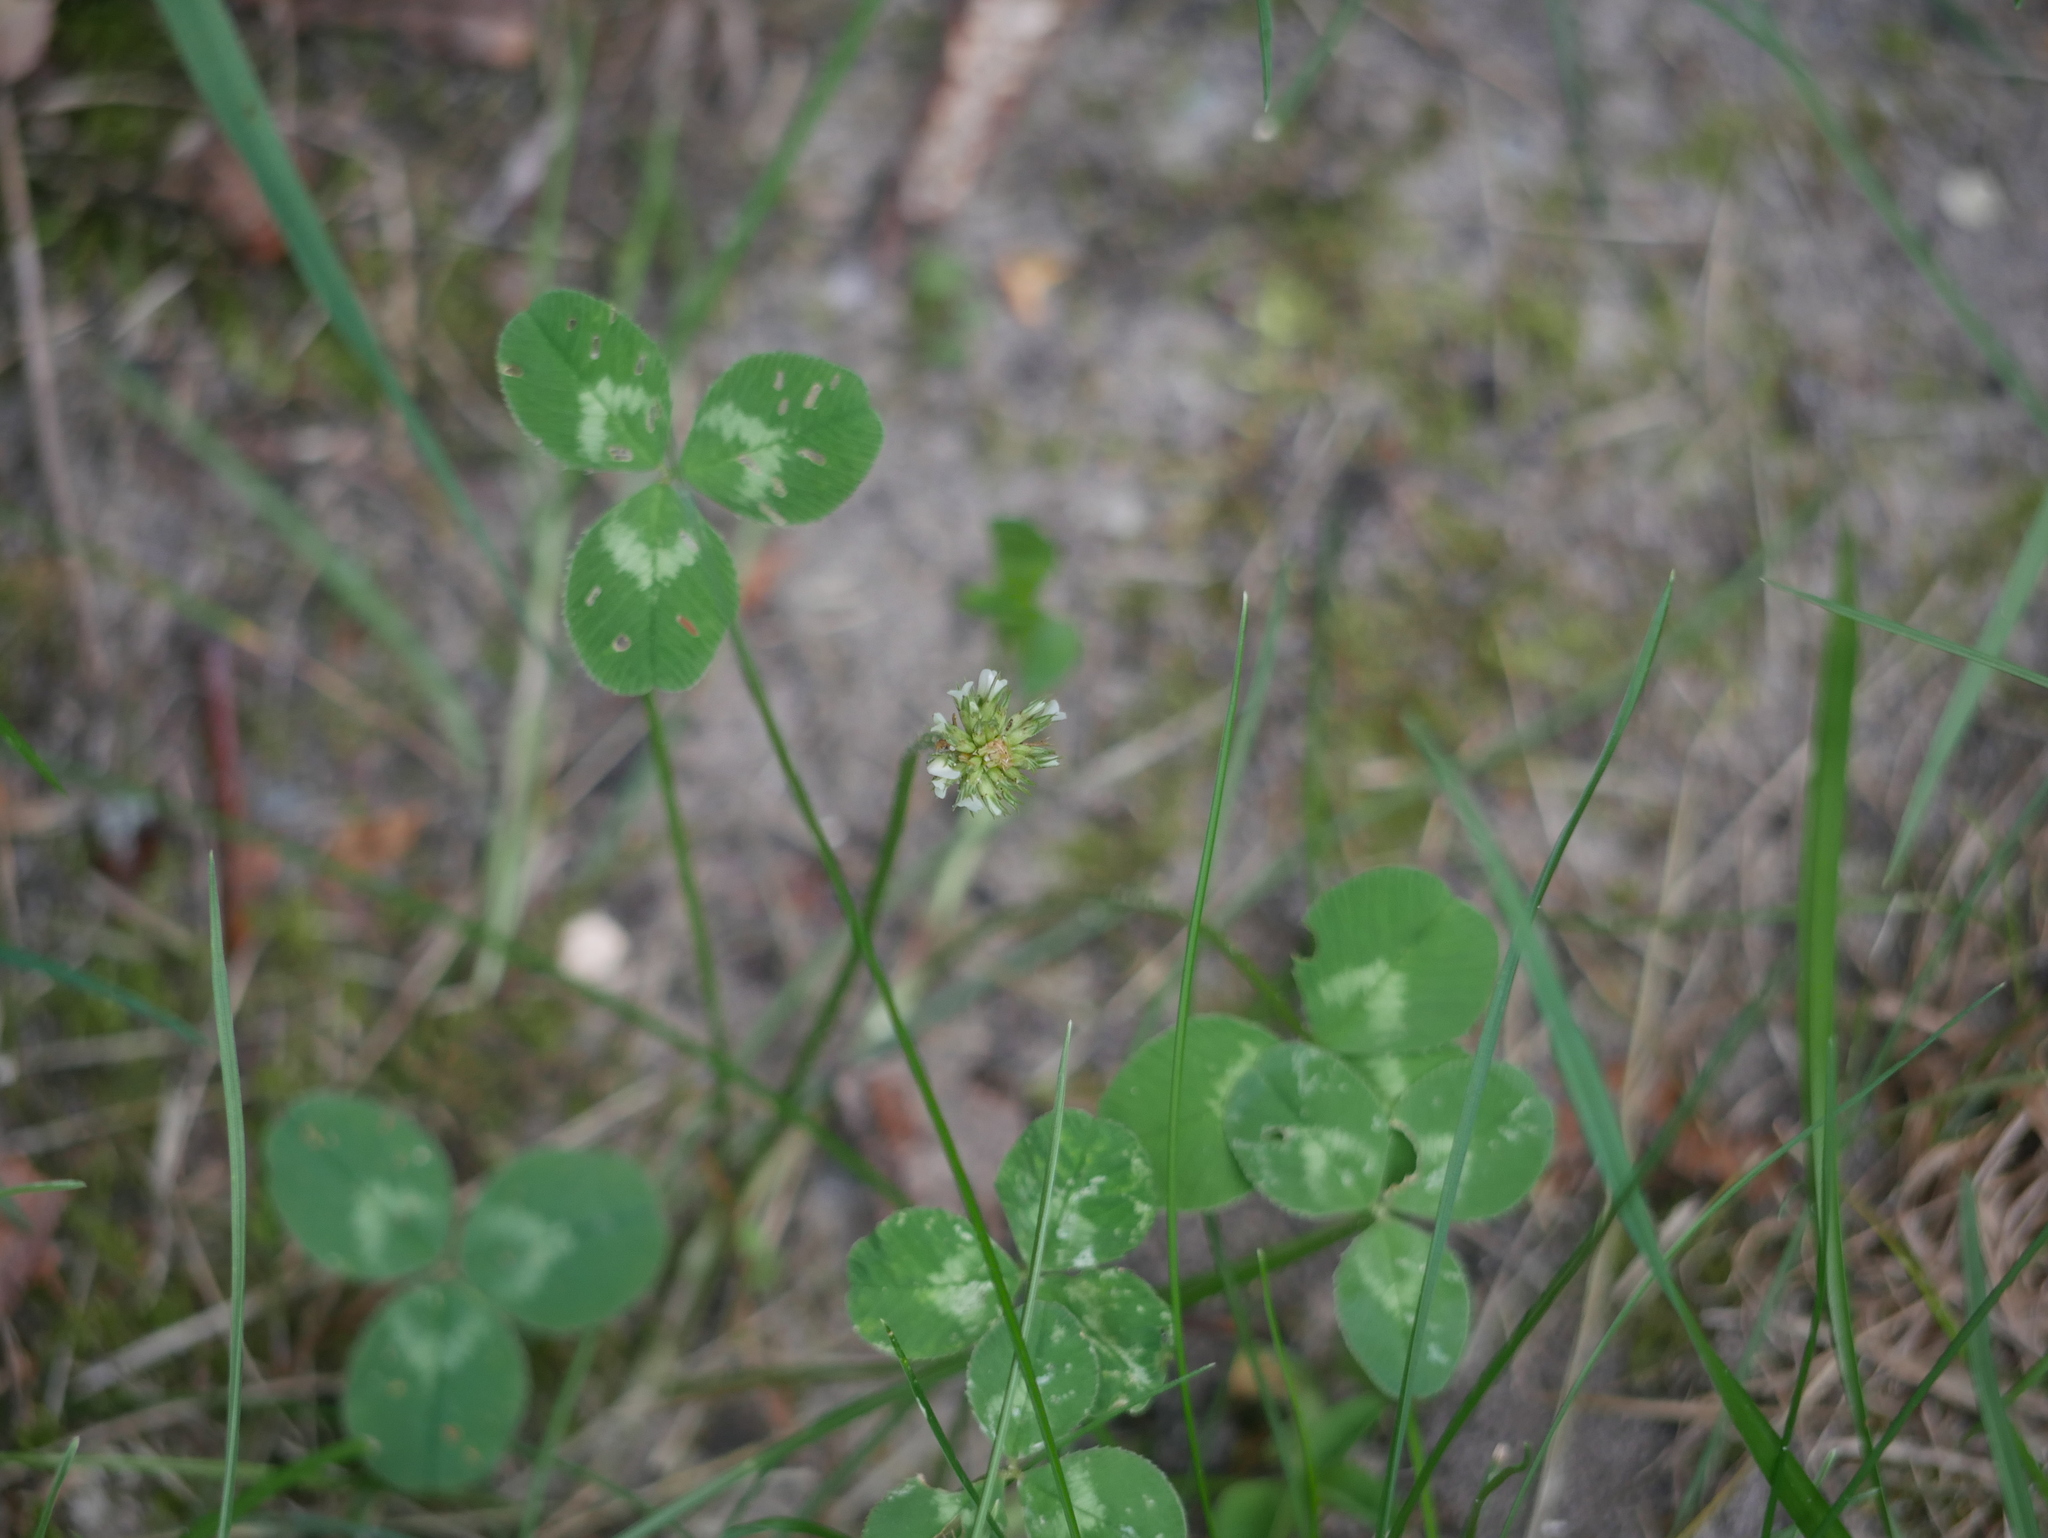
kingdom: Plantae
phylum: Tracheophyta
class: Magnoliopsida
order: Fabales
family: Fabaceae
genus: Trifolium
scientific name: Trifolium repens
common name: White clover
